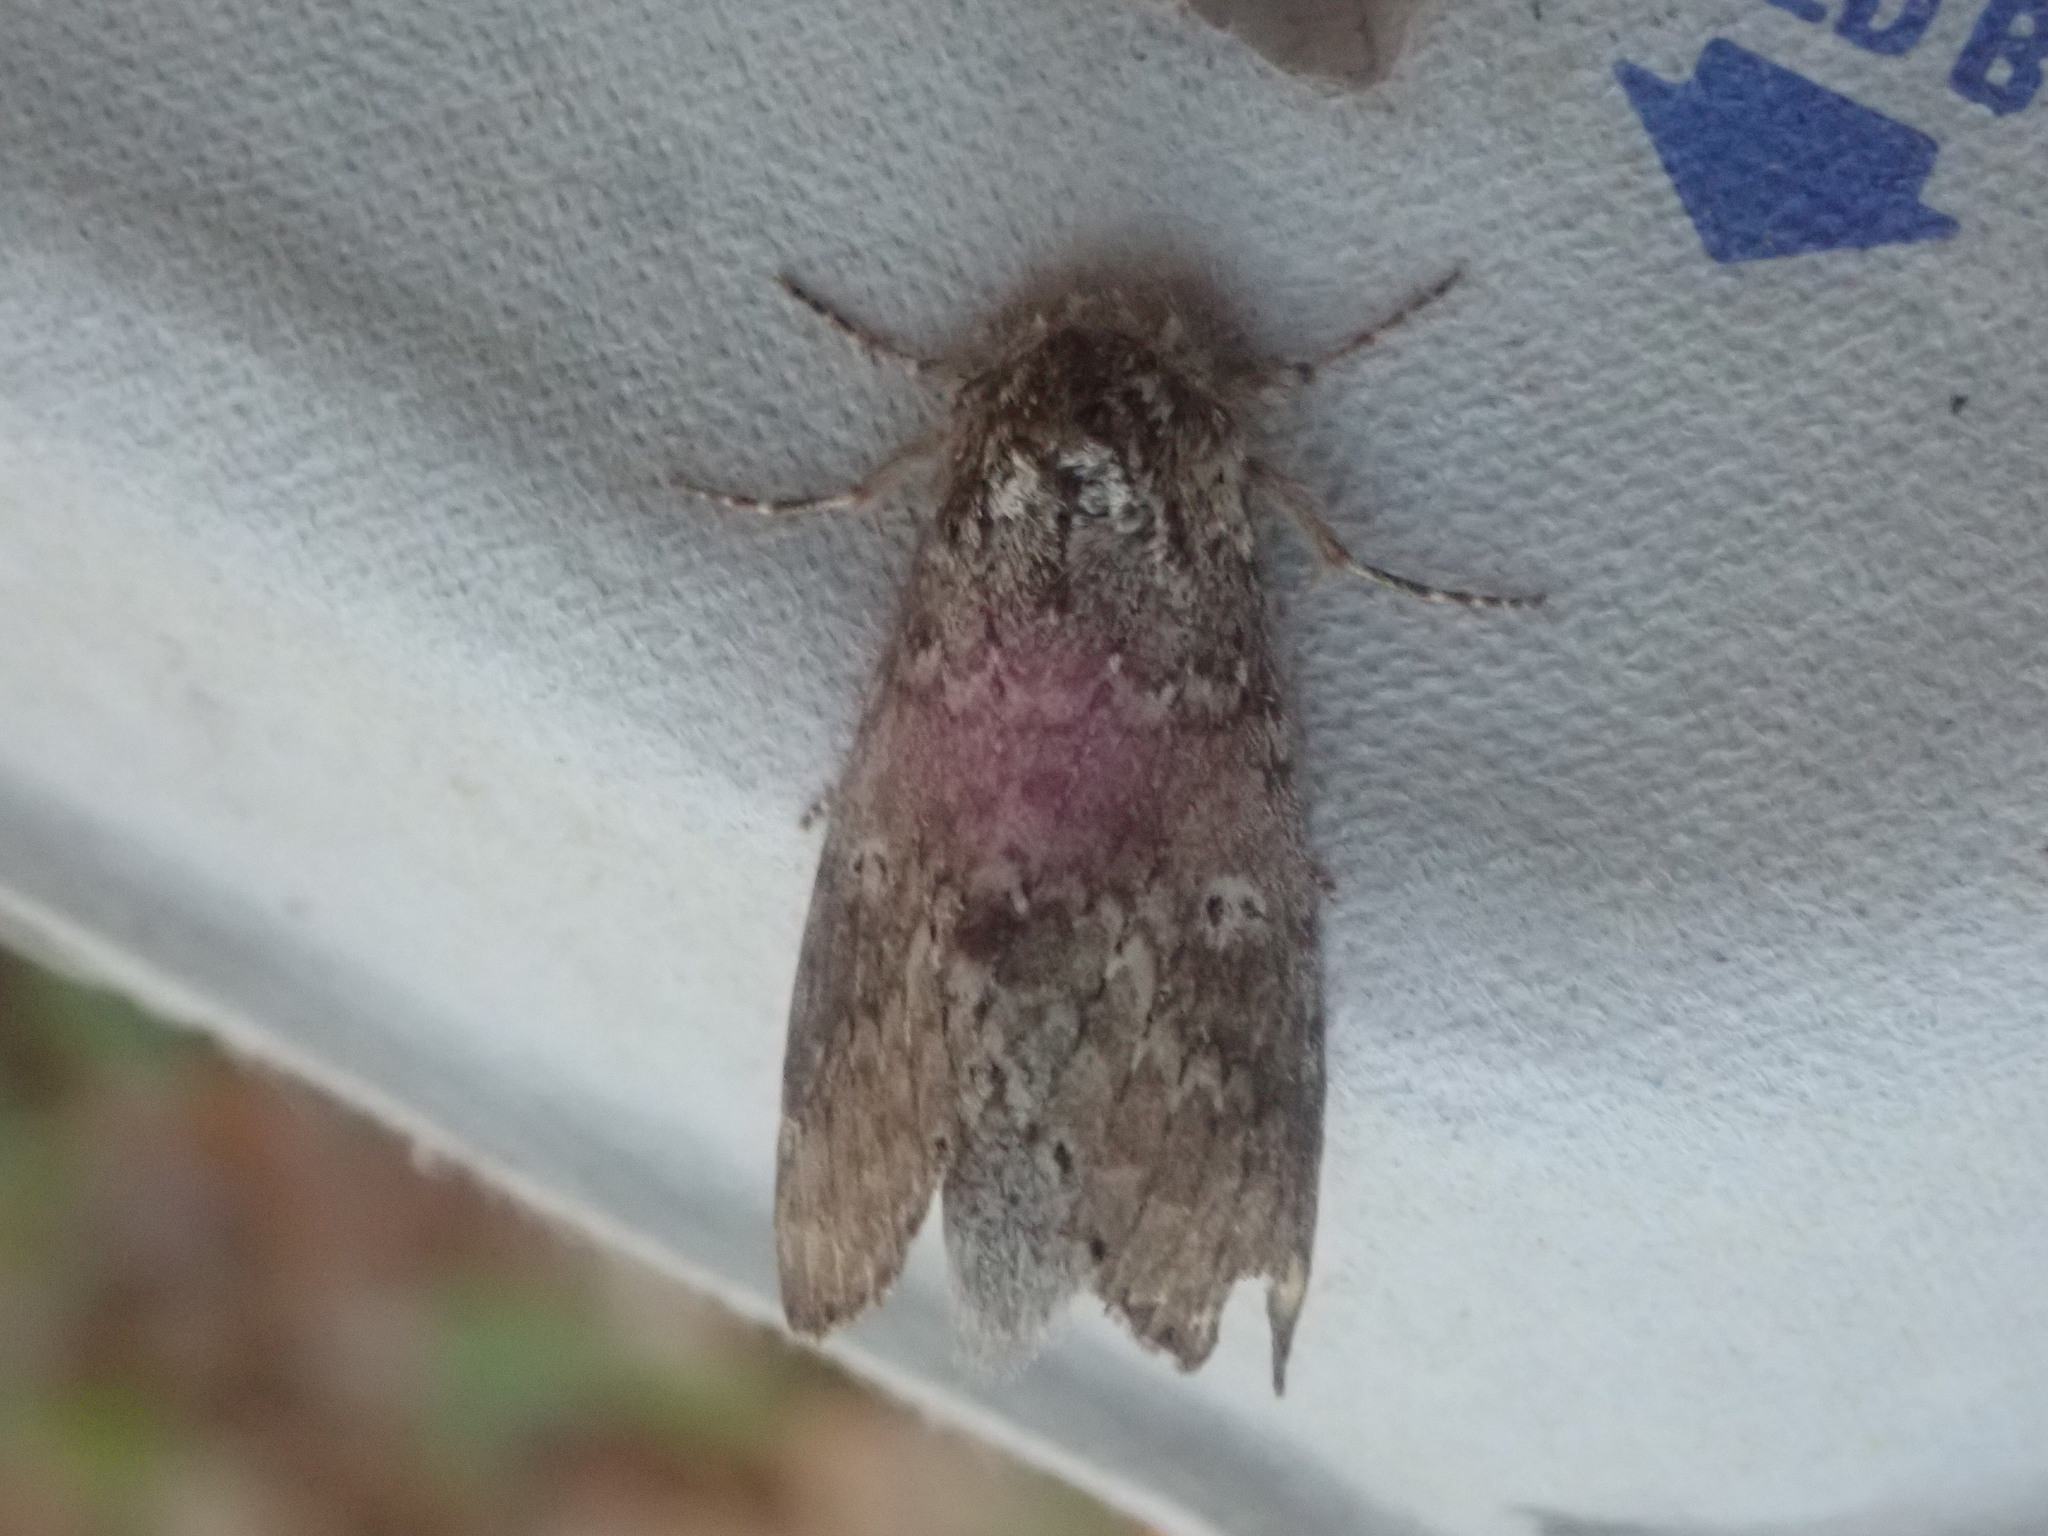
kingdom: Animalia
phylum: Arthropoda
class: Insecta
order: Lepidoptera
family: Notodontidae
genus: Lochmaeus
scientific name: Lochmaeus manteo
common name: Variable oakleaf caterpillar moth
